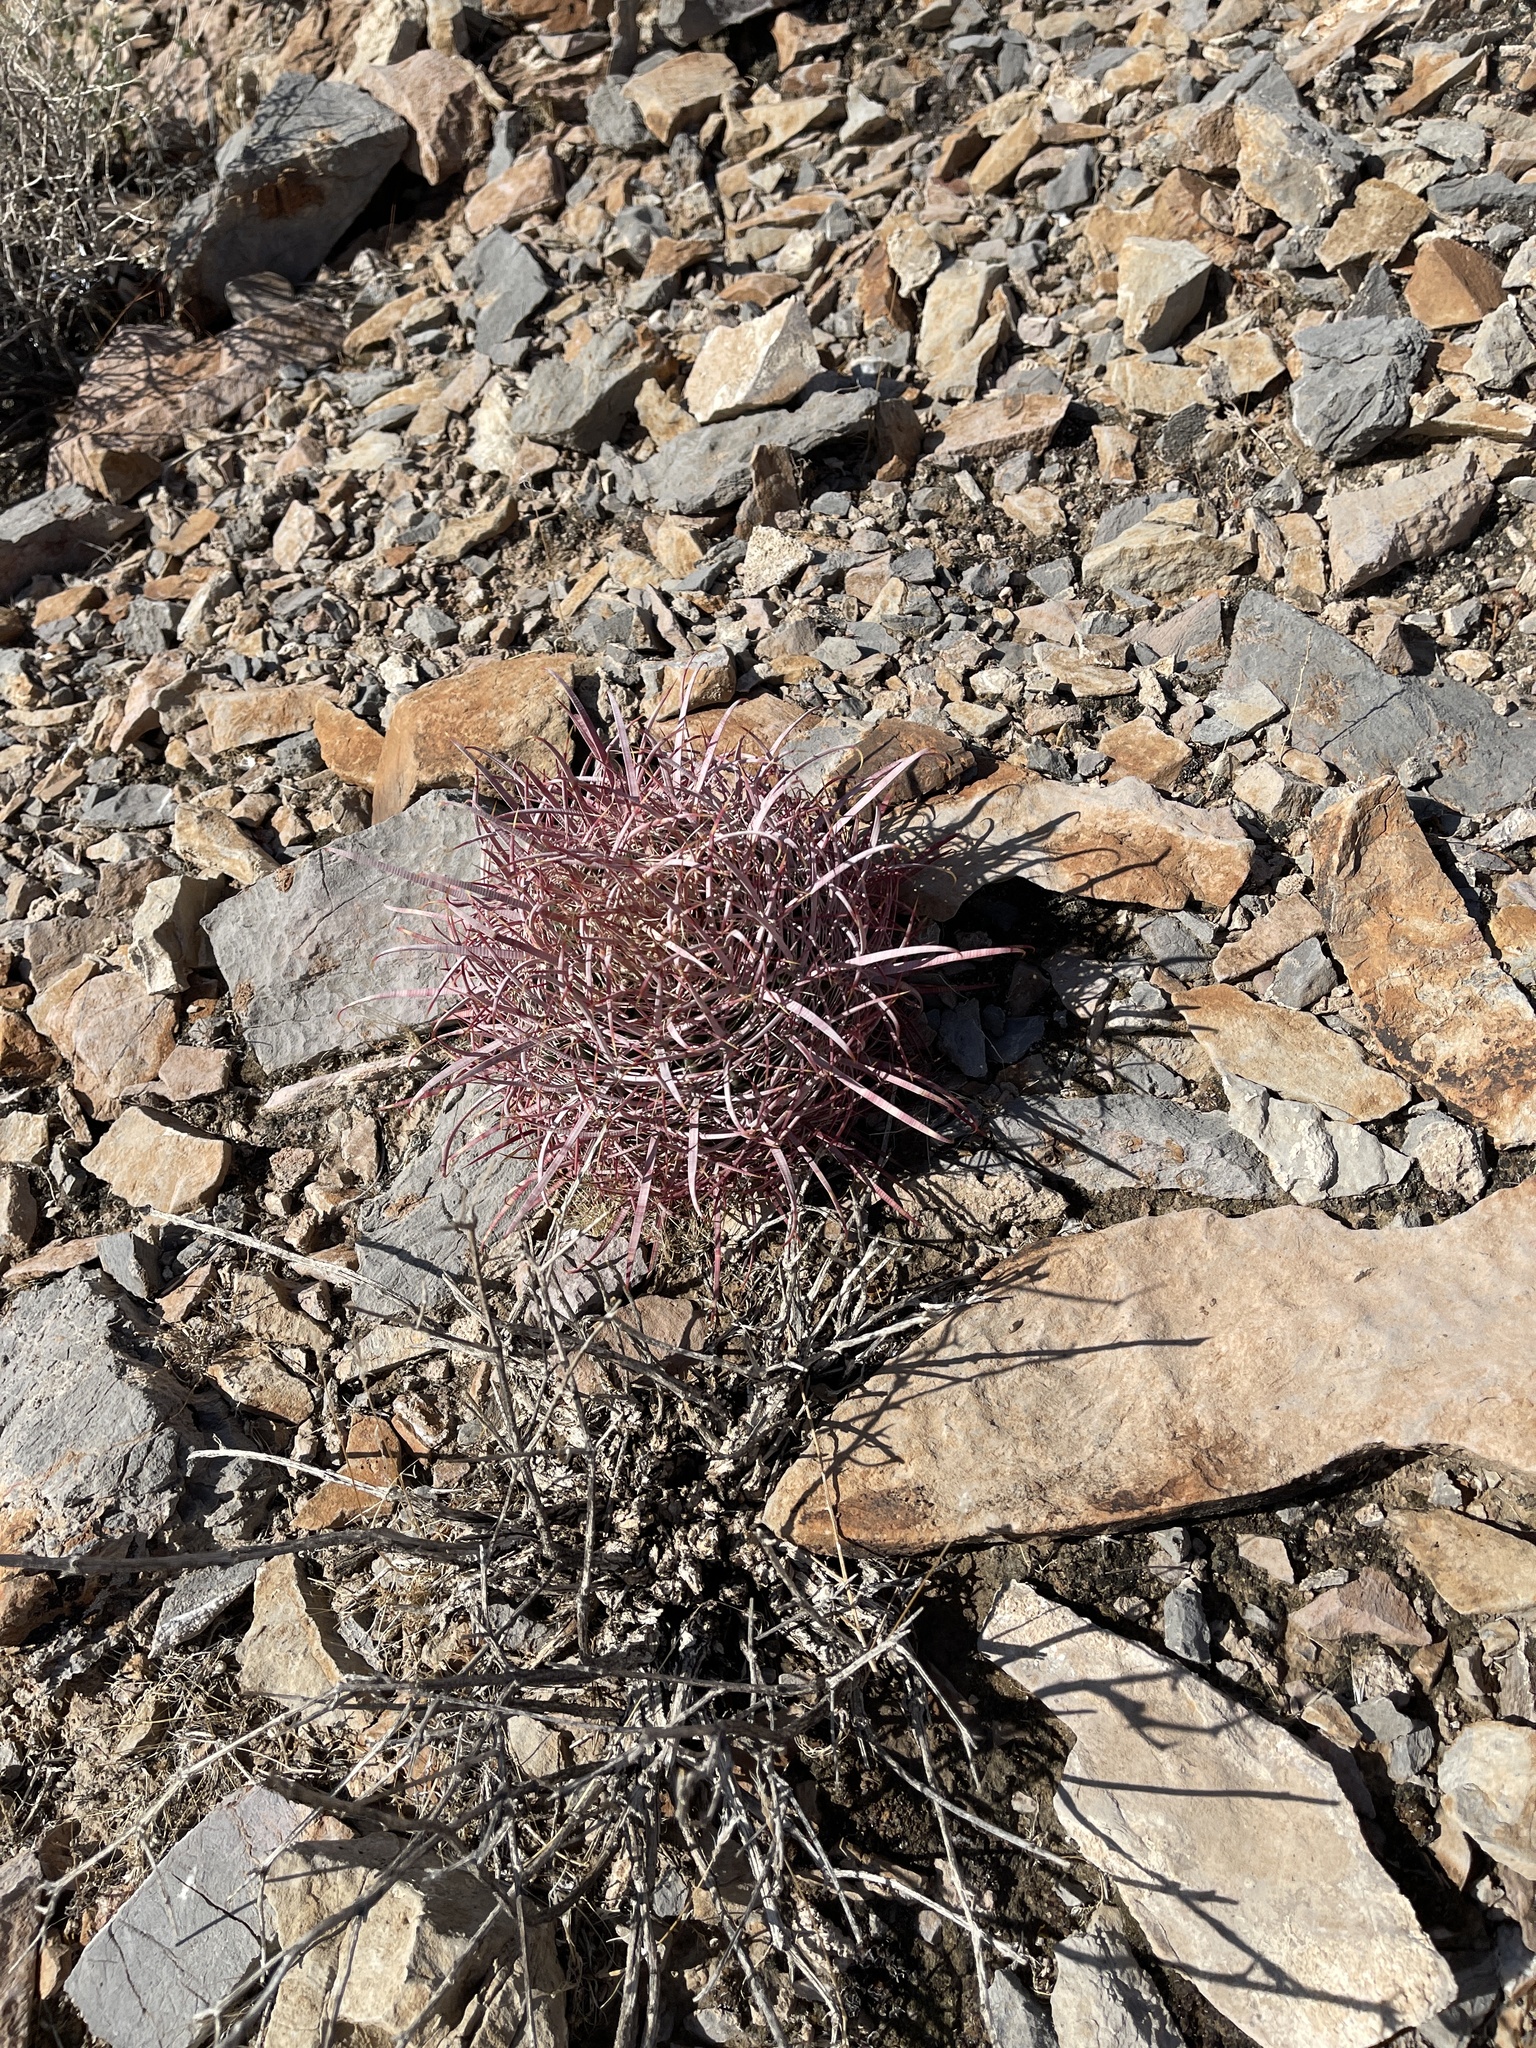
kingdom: Plantae
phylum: Tracheophyta
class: Magnoliopsida
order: Caryophyllales
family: Cactaceae
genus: Ferocactus
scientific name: Ferocactus cylindraceus
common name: California barrel cactus
